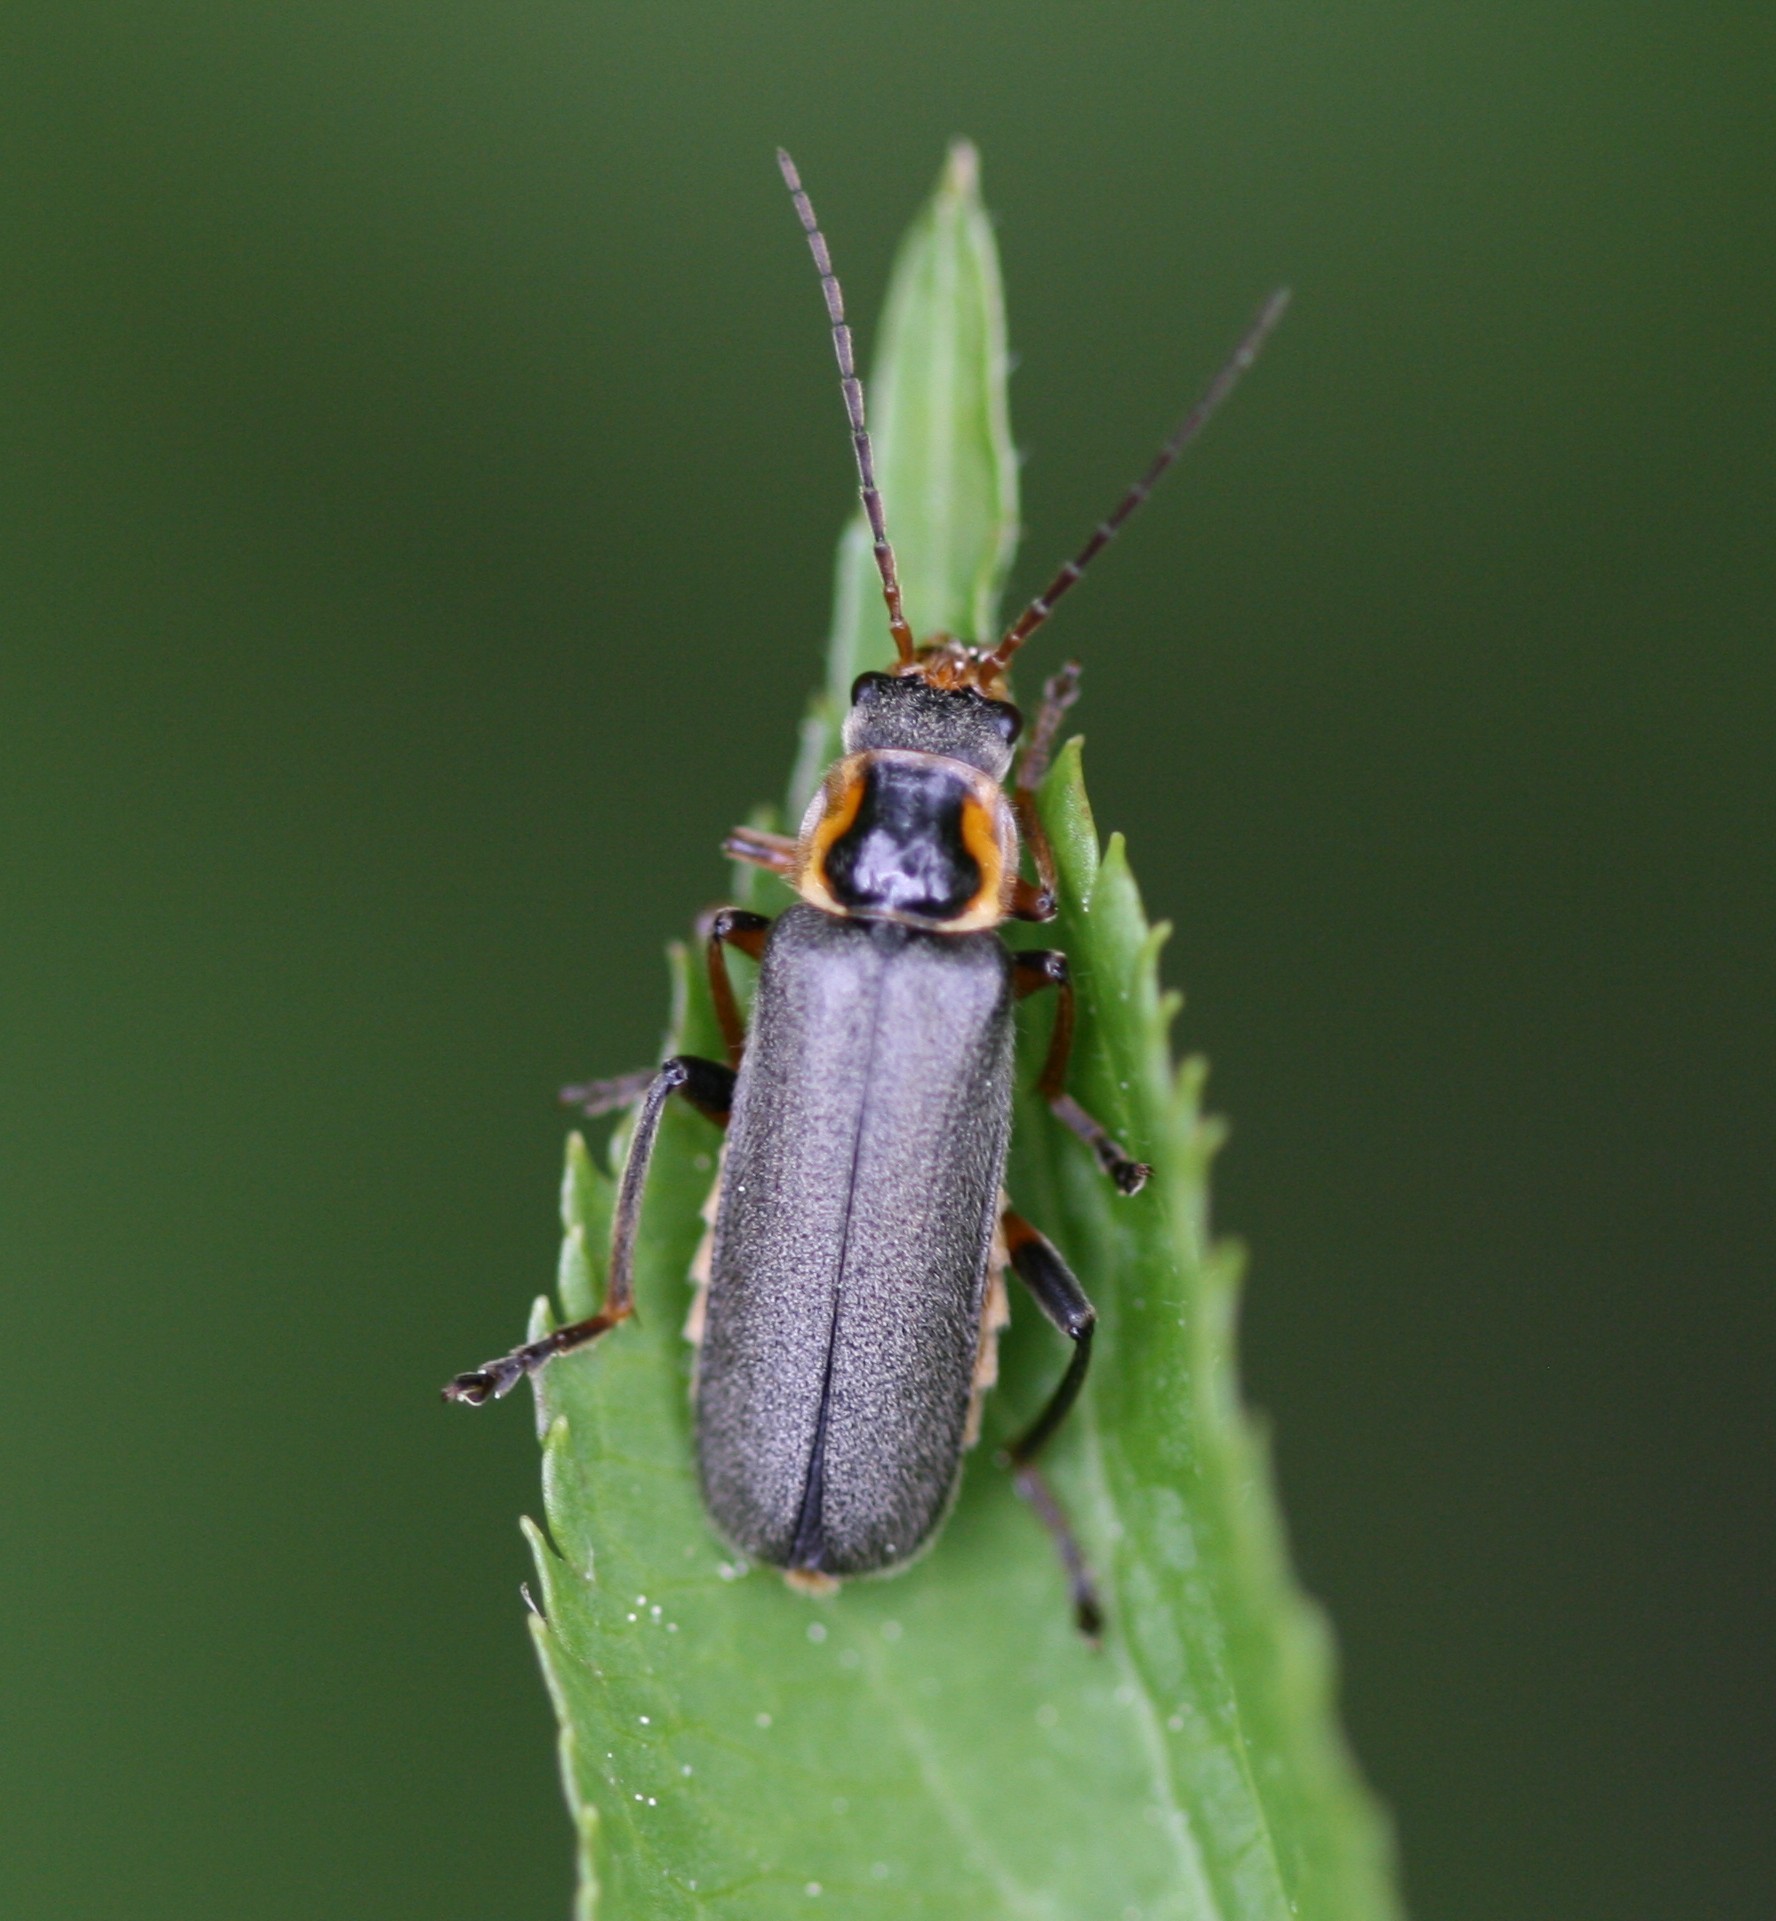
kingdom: Animalia
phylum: Arthropoda
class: Insecta
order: Coleoptera
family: Cantharidae
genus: Cantharis
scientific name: Cantharis nigricans
